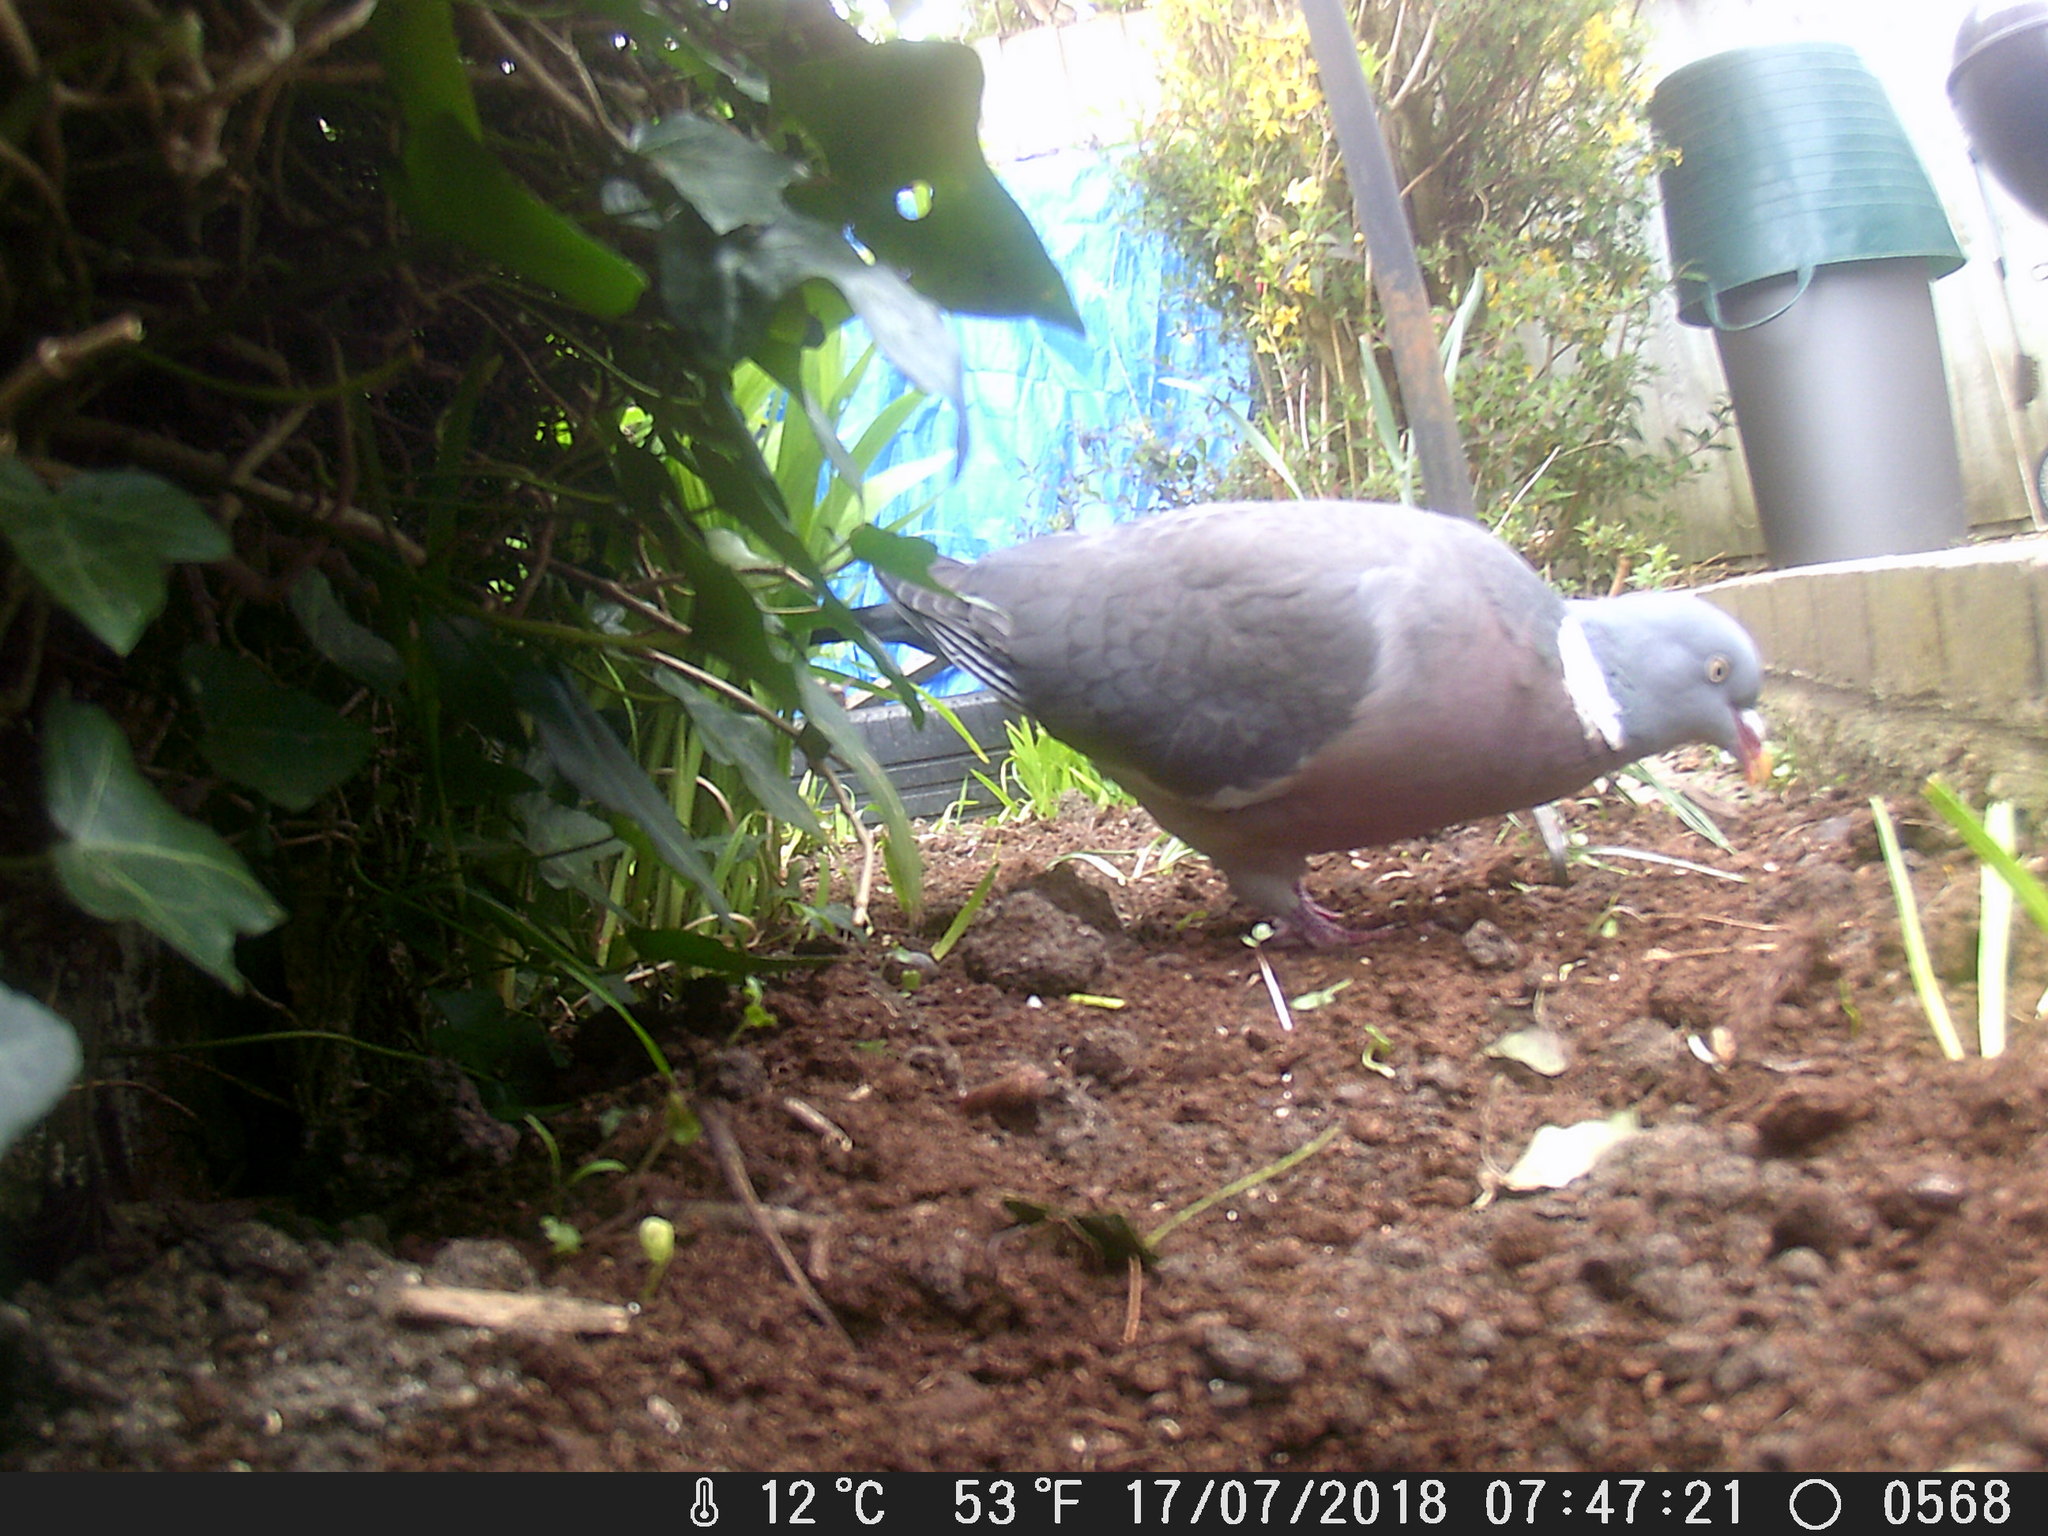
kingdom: Animalia
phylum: Chordata
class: Aves
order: Columbiformes
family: Columbidae
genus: Columba
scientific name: Columba palumbus
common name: Common wood pigeon
